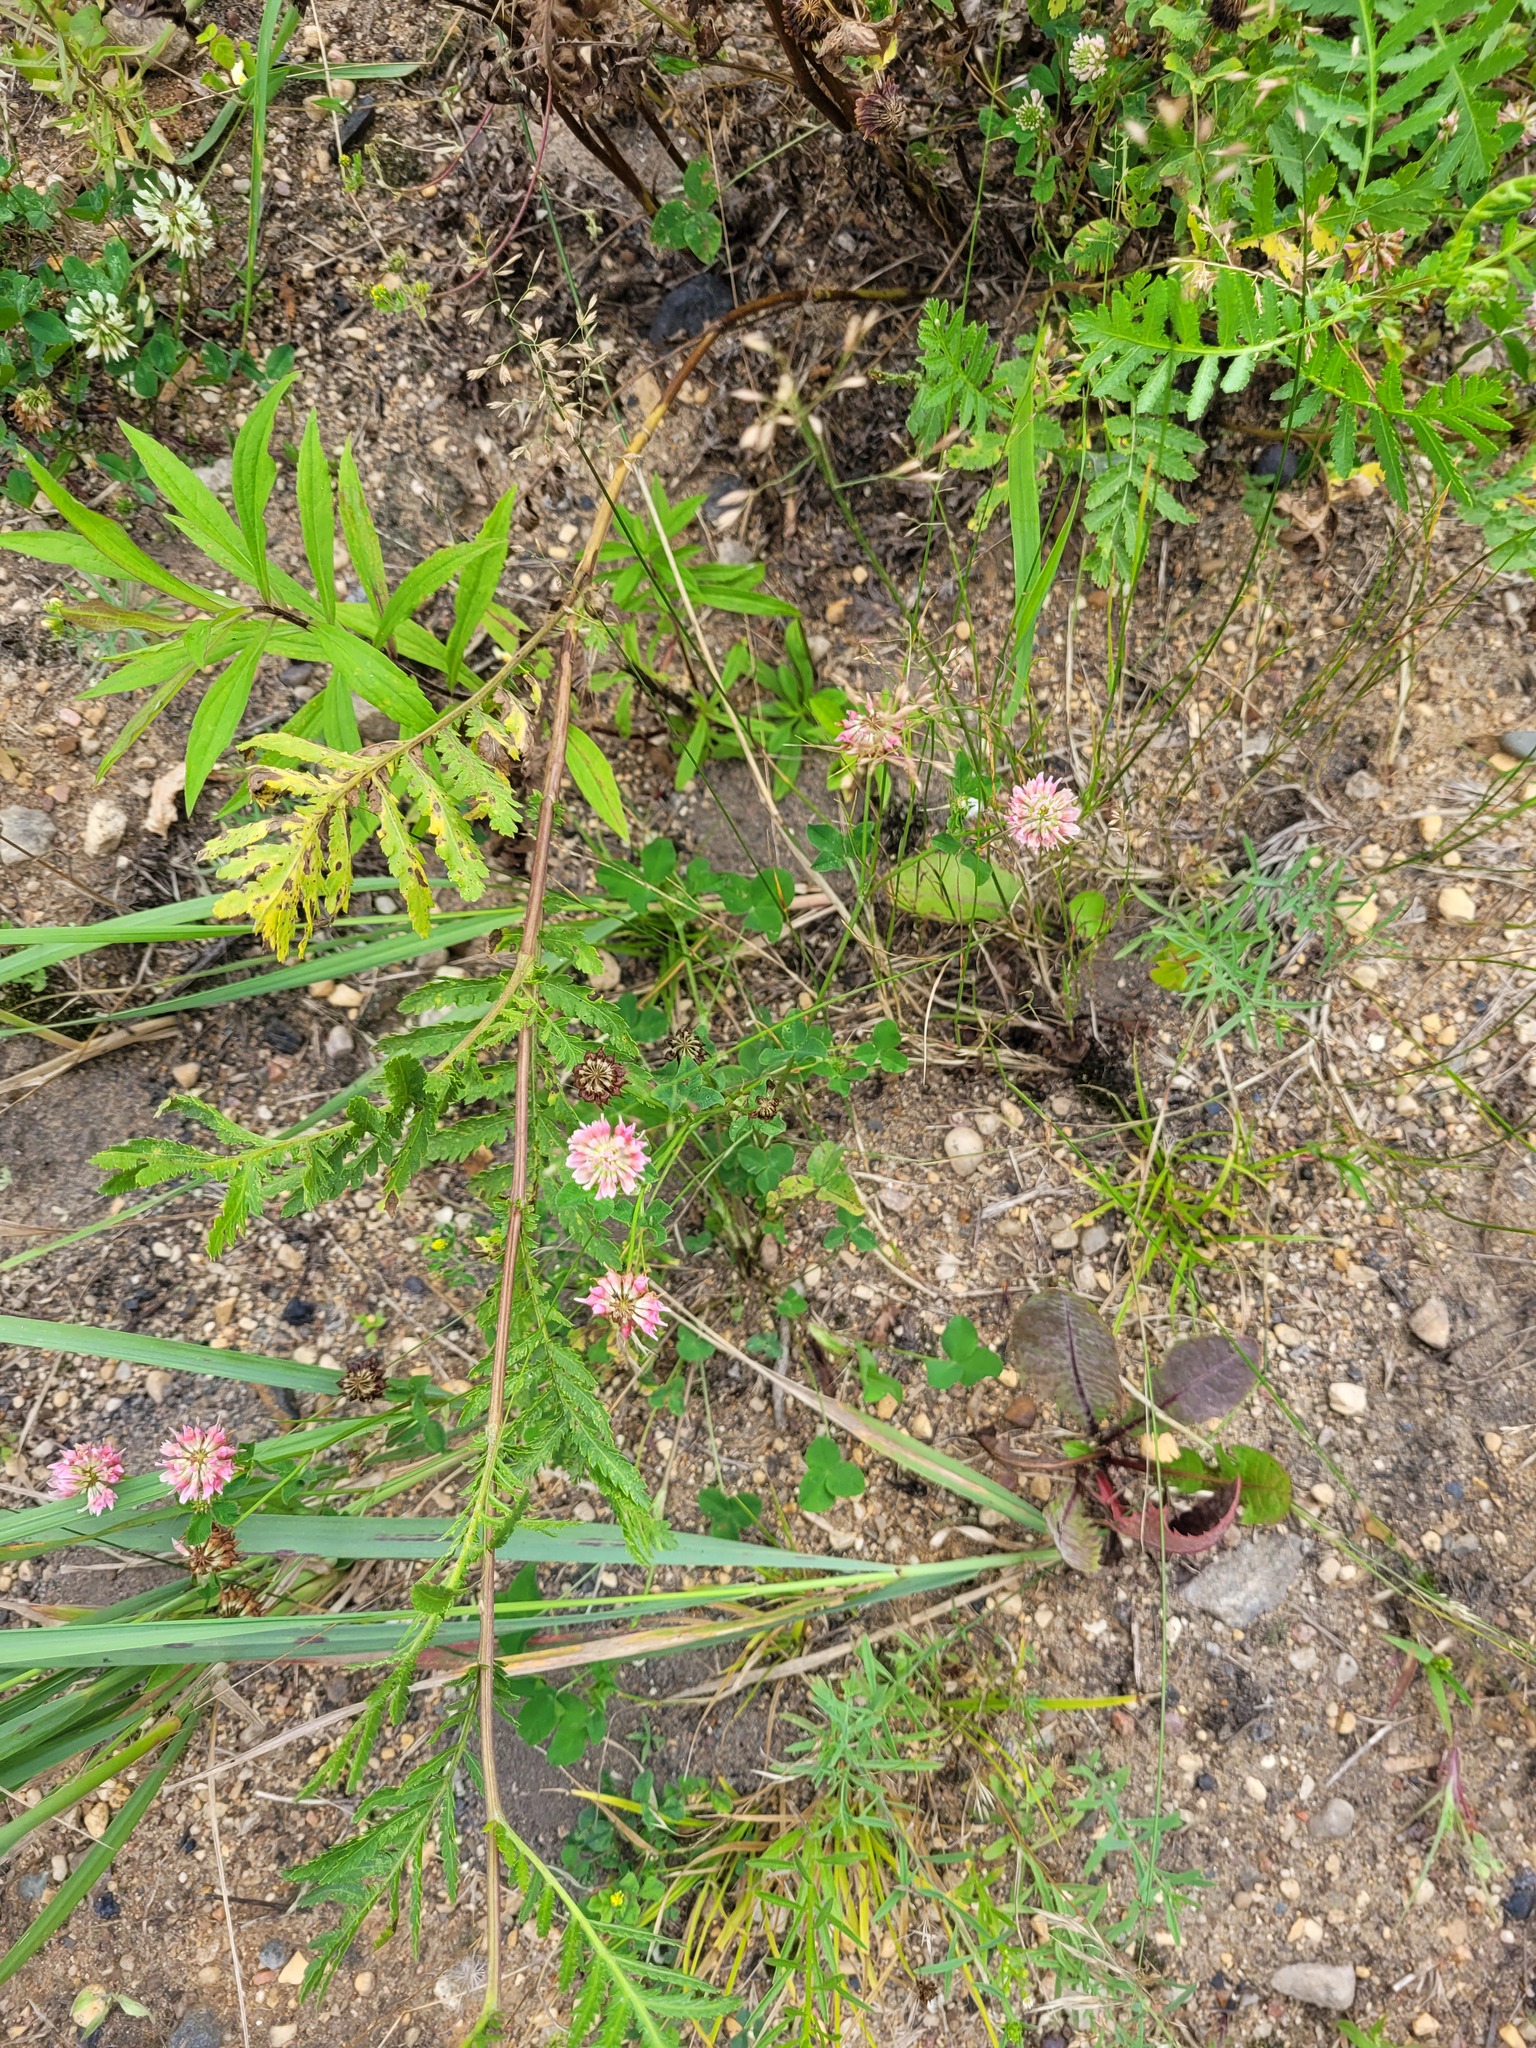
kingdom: Plantae
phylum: Tracheophyta
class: Magnoliopsida
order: Fabales
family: Fabaceae
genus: Trifolium
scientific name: Trifolium hybridum
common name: Alsike clover
